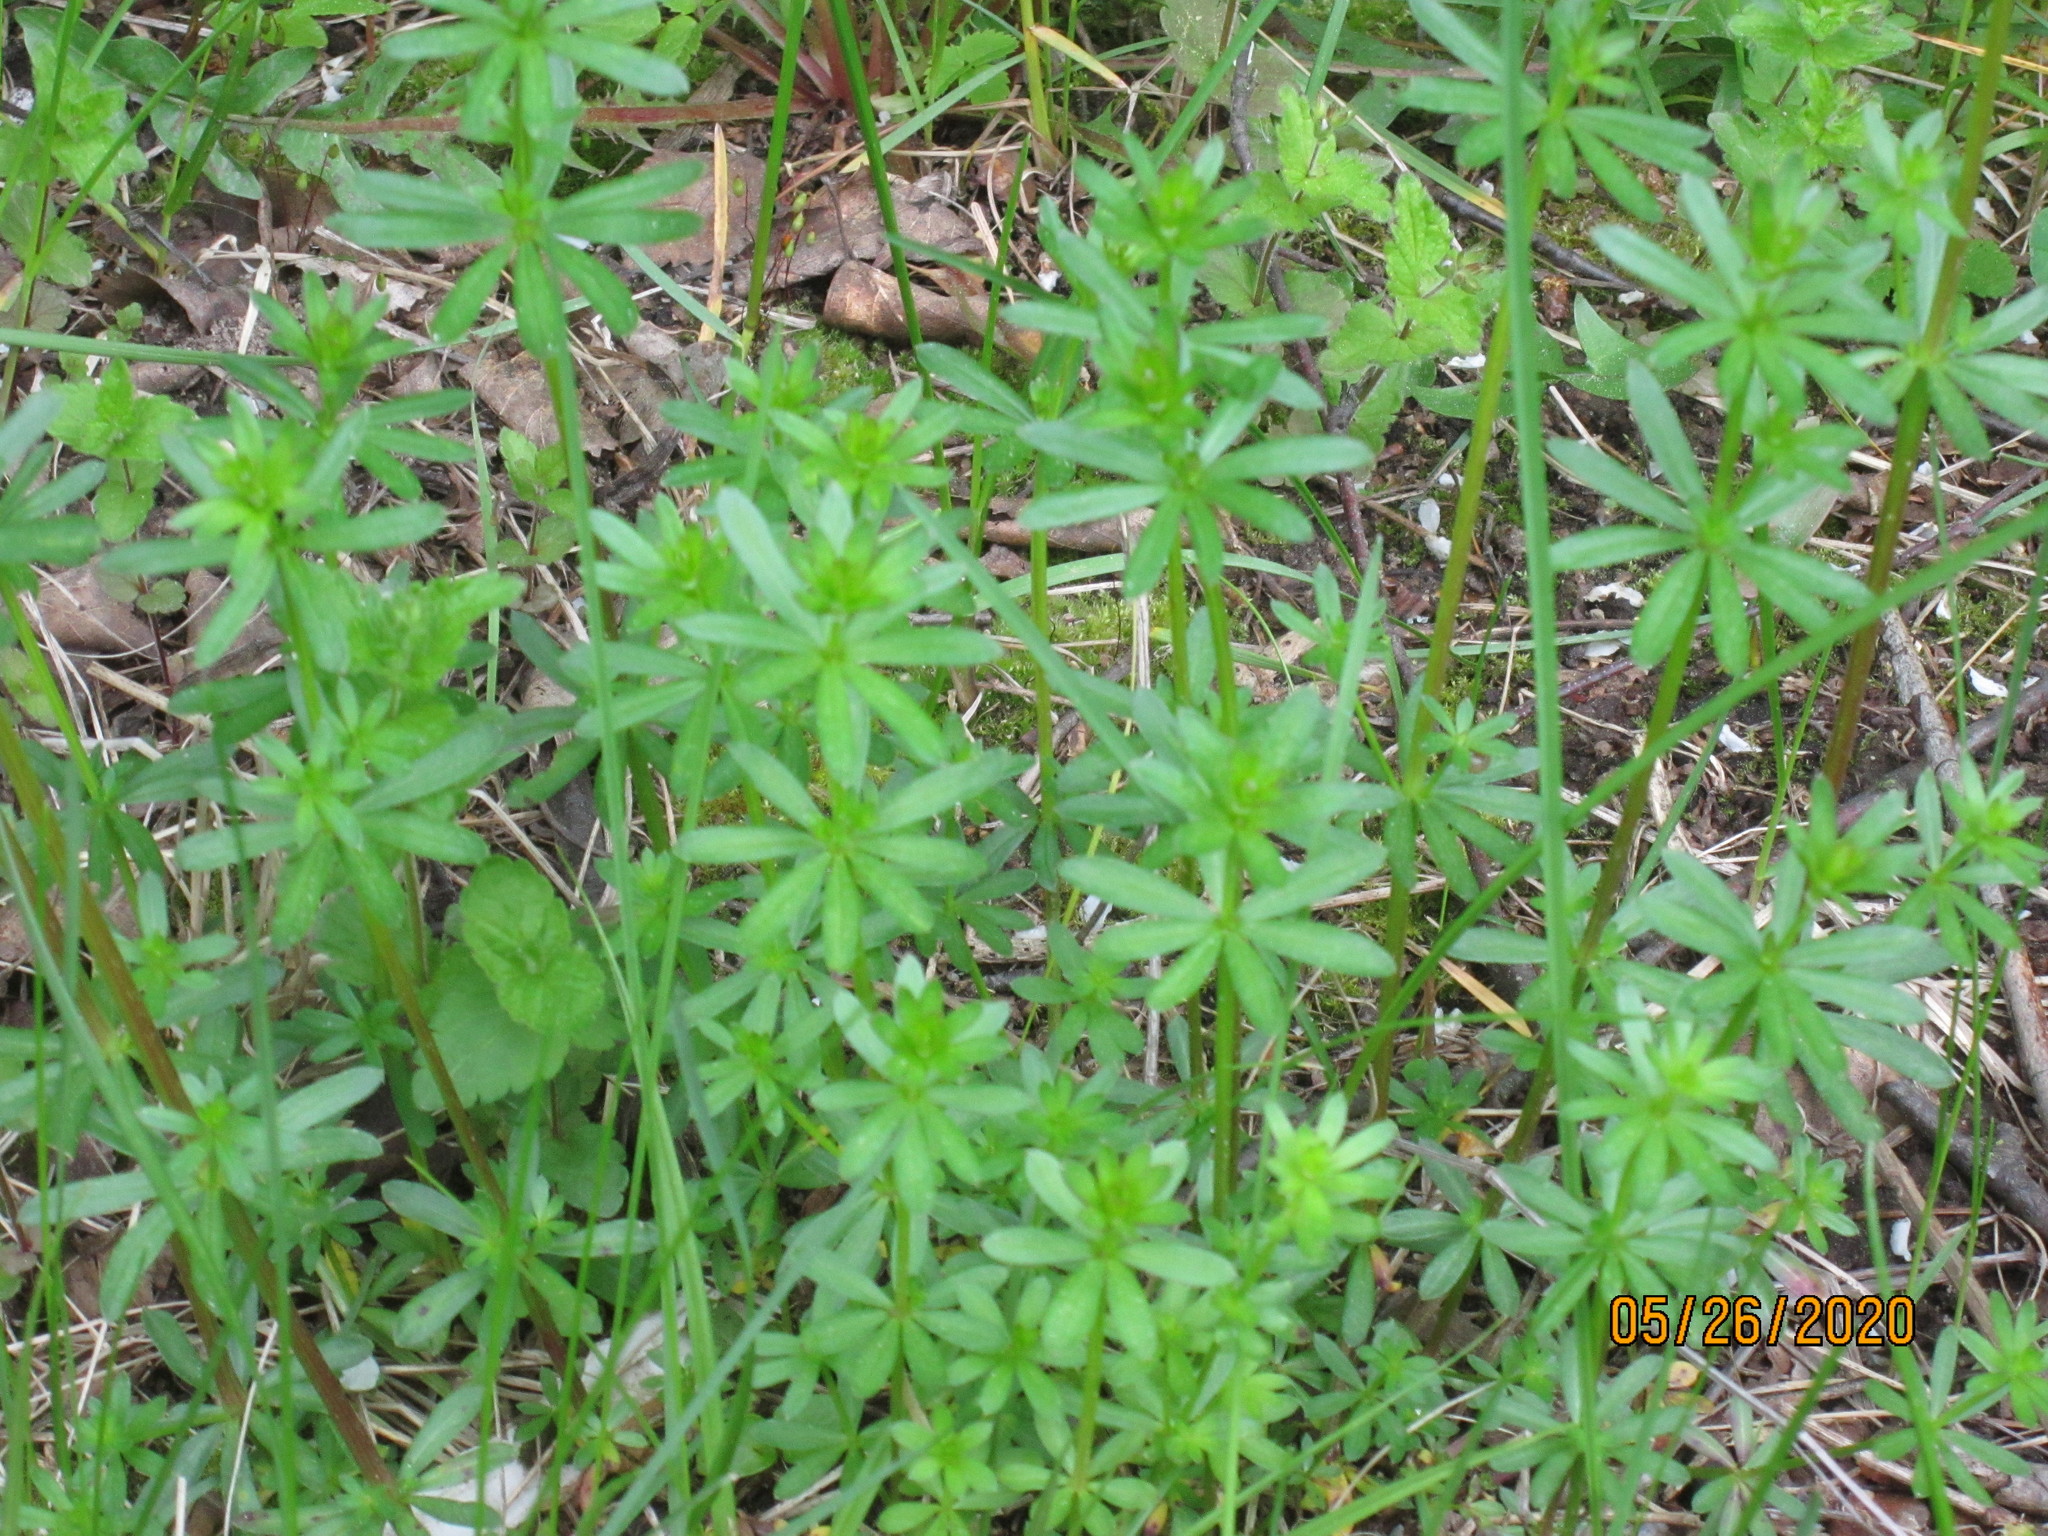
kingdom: Plantae
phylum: Tracheophyta
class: Magnoliopsida
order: Gentianales
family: Rubiaceae
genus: Galium
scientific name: Galium mollugo
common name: Hedge bedstraw
